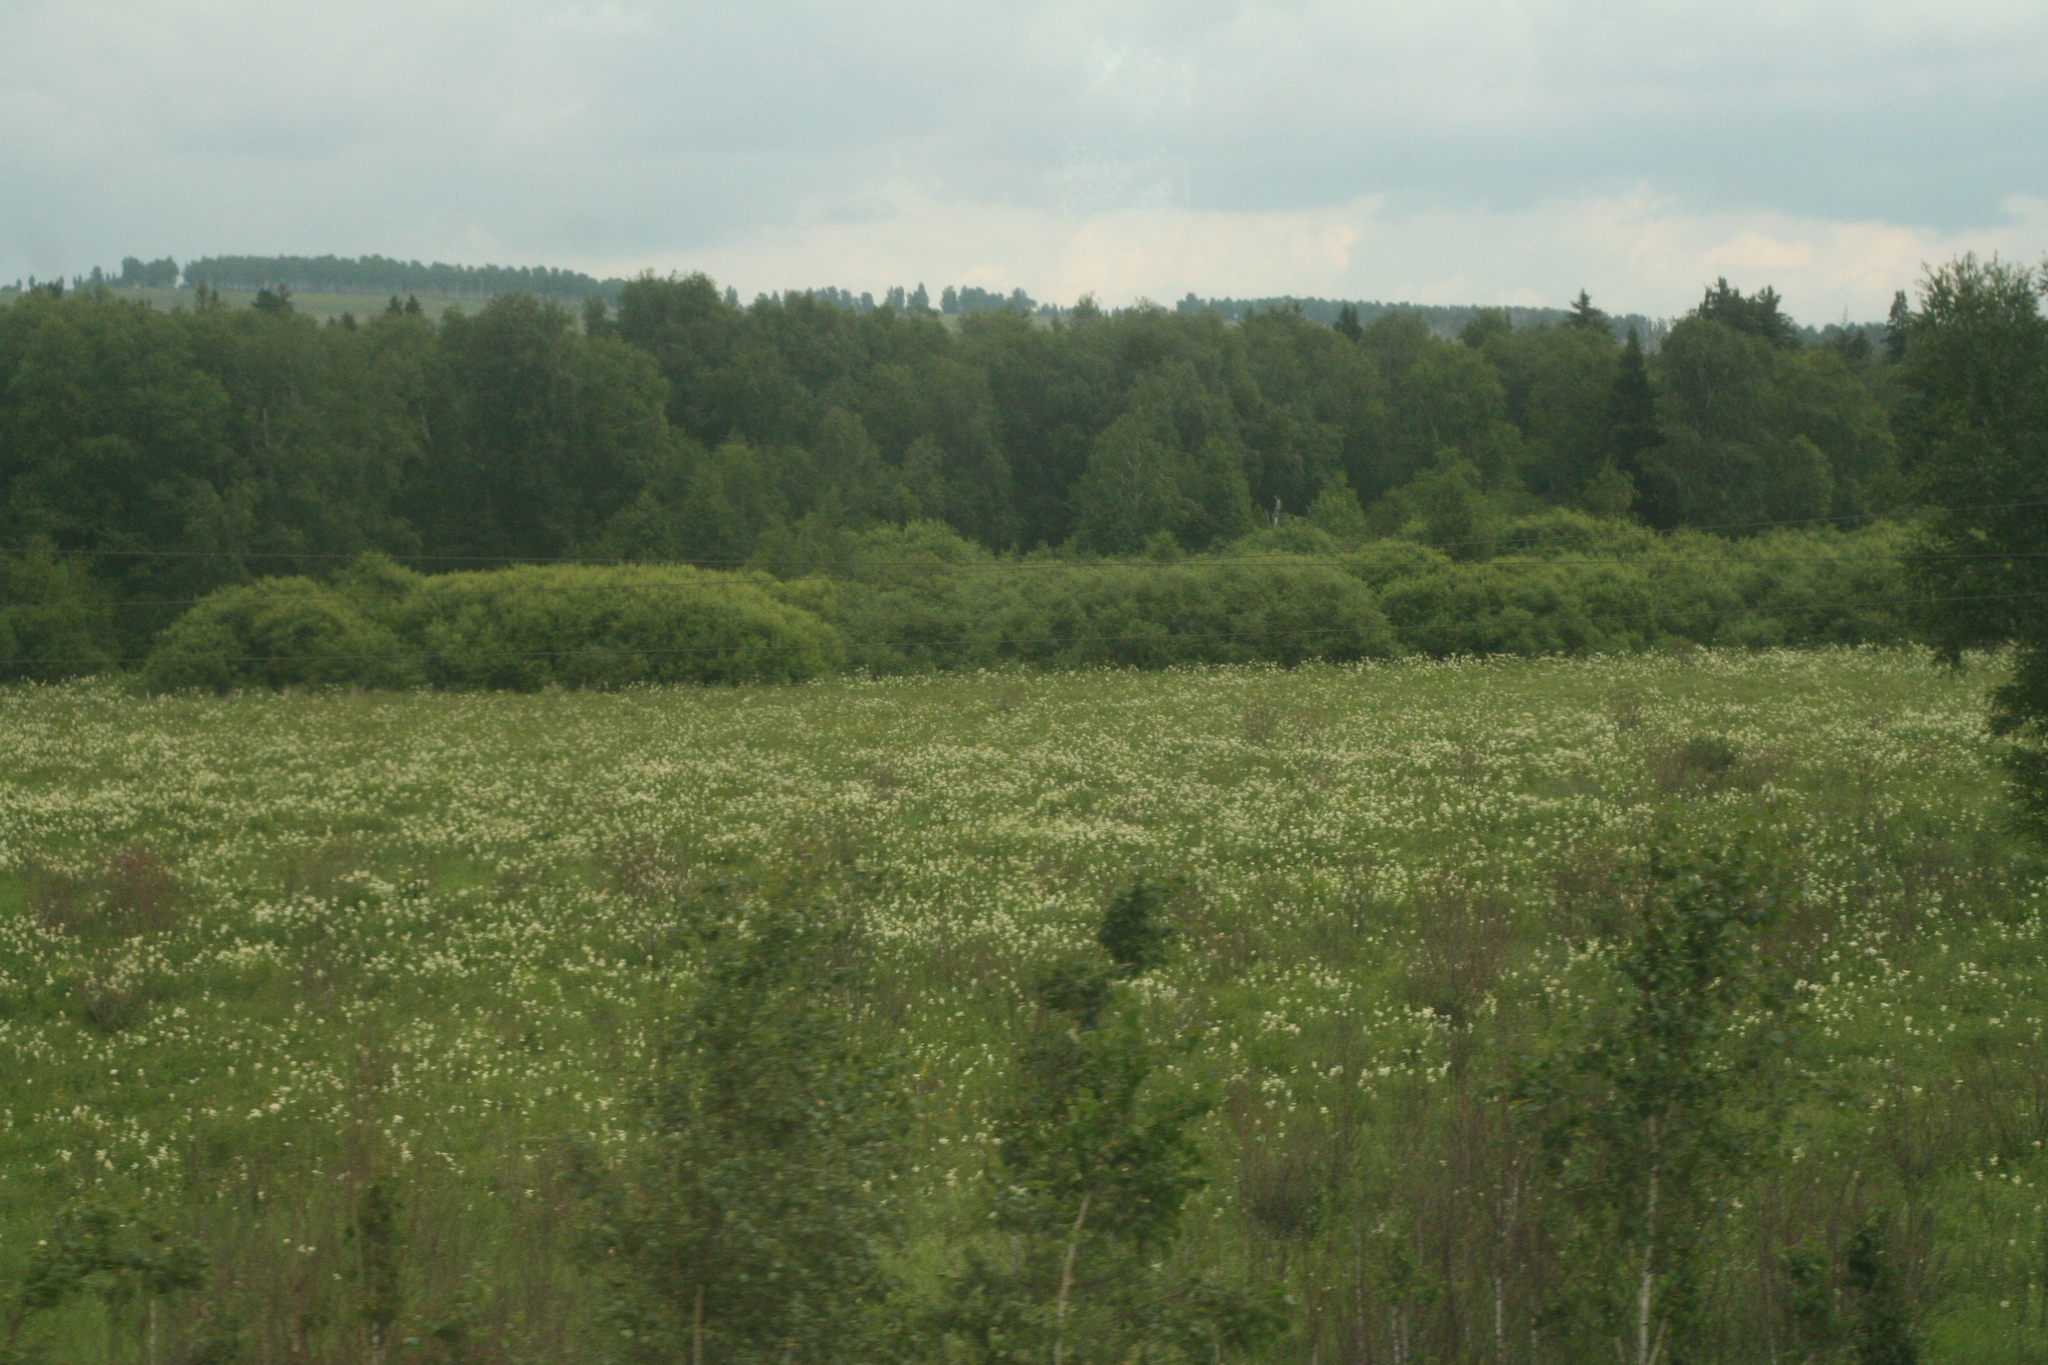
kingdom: Plantae
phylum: Tracheophyta
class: Magnoliopsida
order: Rosales
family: Rosaceae
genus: Filipendula
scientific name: Filipendula ulmaria
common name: Meadowsweet
